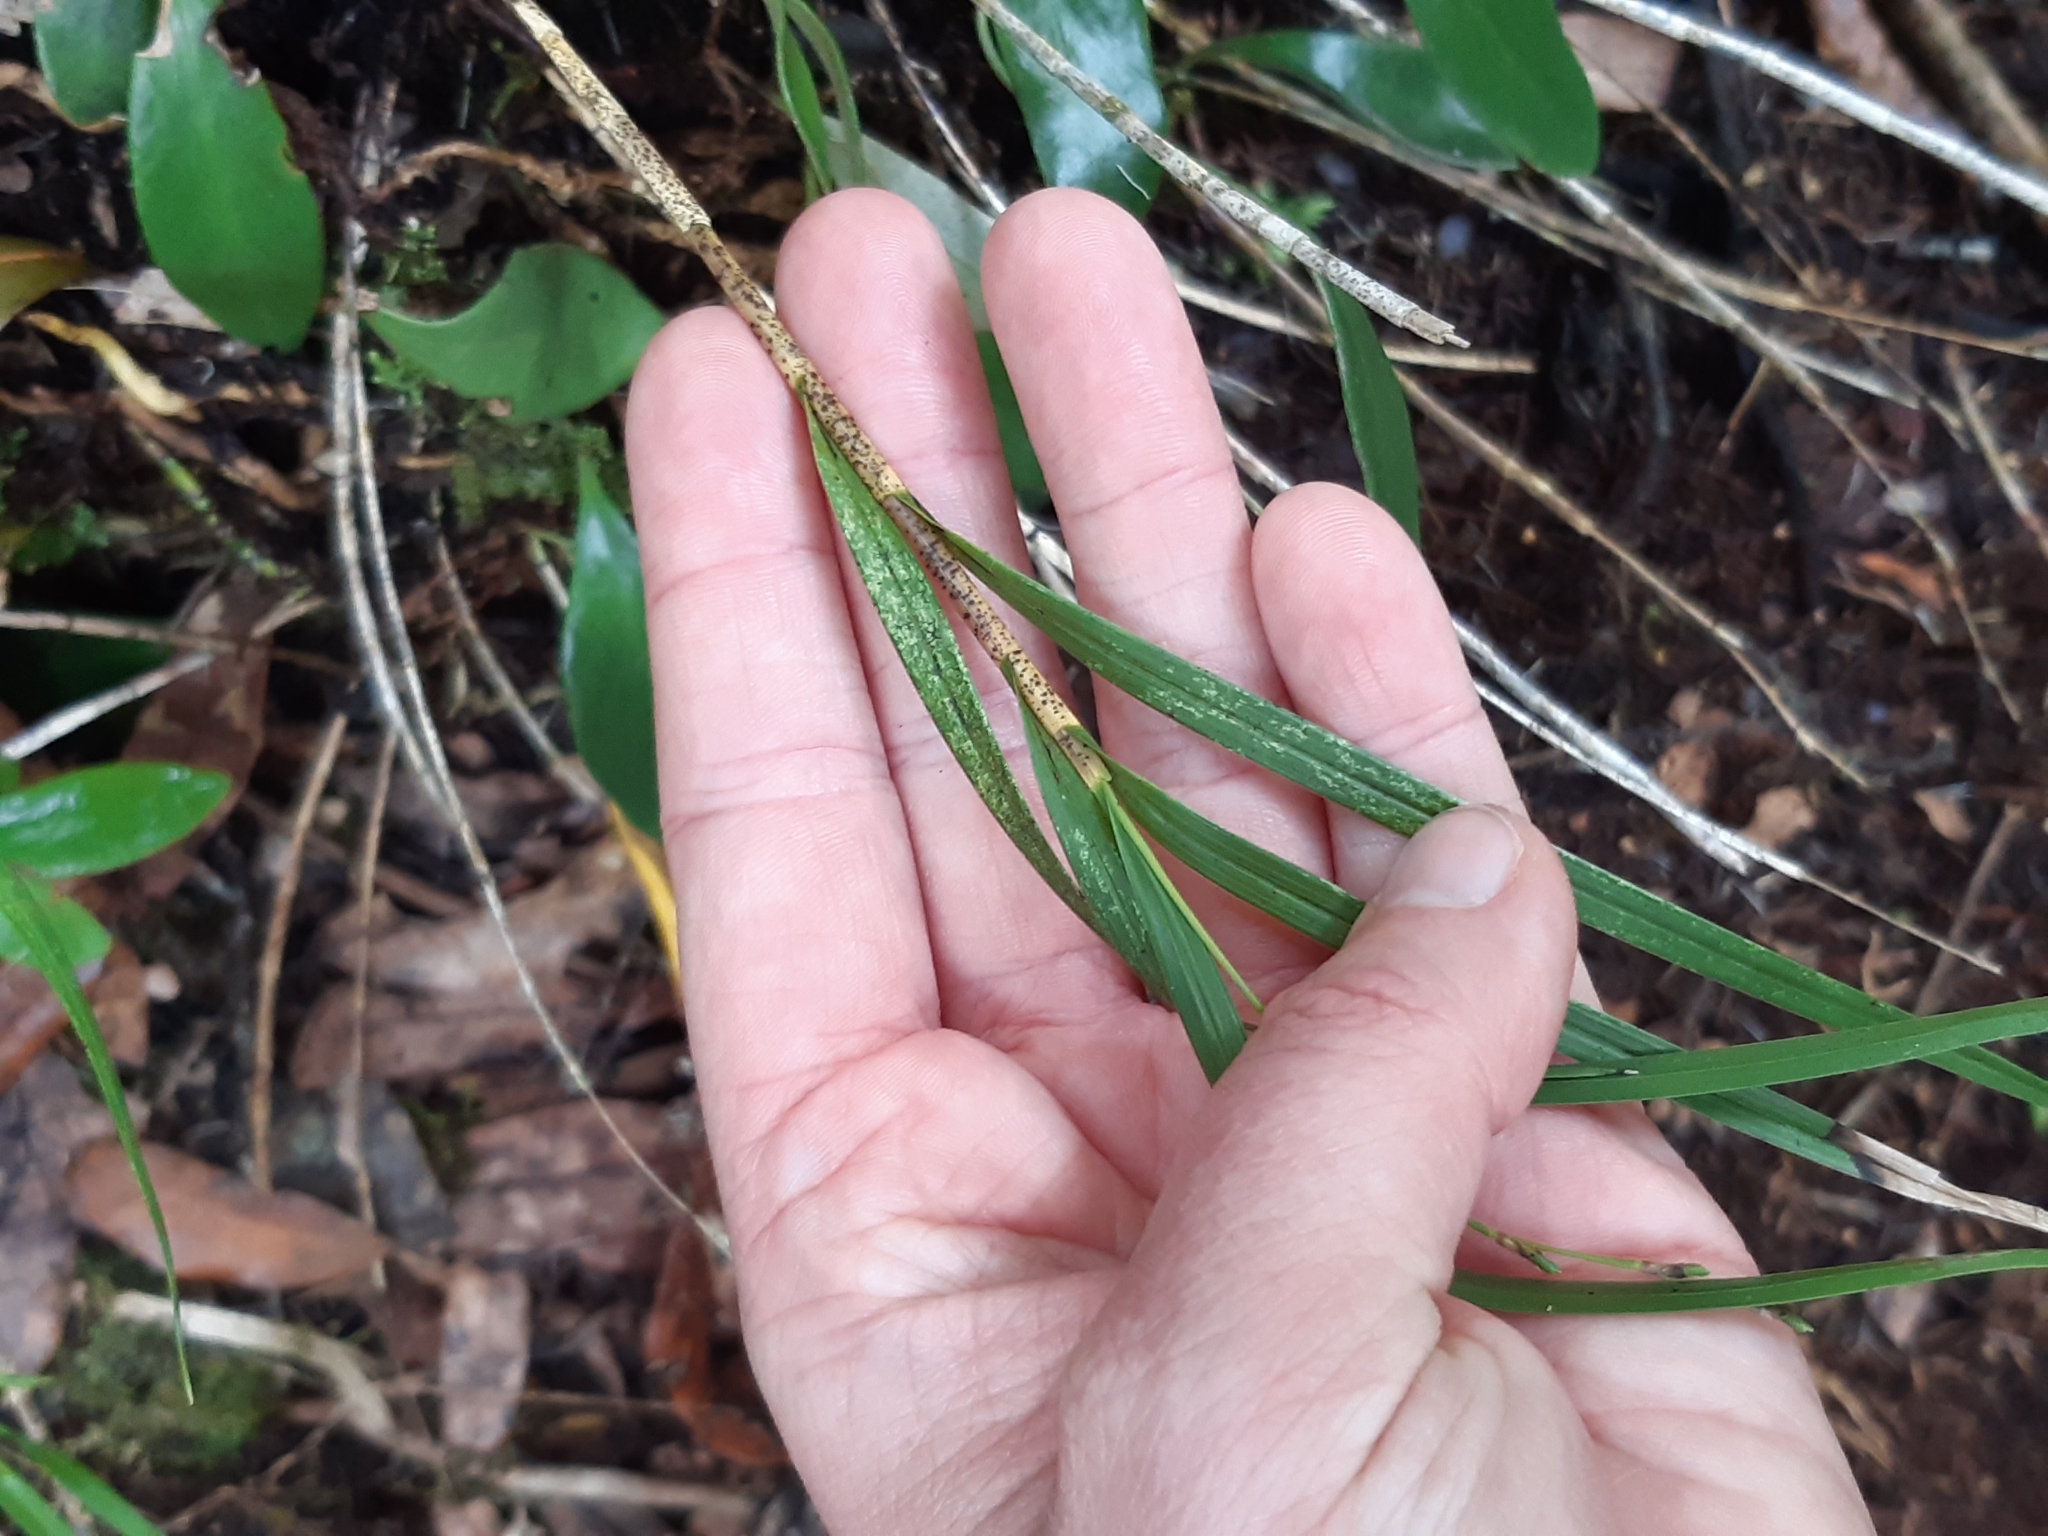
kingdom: Plantae
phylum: Tracheophyta
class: Liliopsida
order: Asparagales
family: Orchidaceae
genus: Earina
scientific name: Earina mucronata
